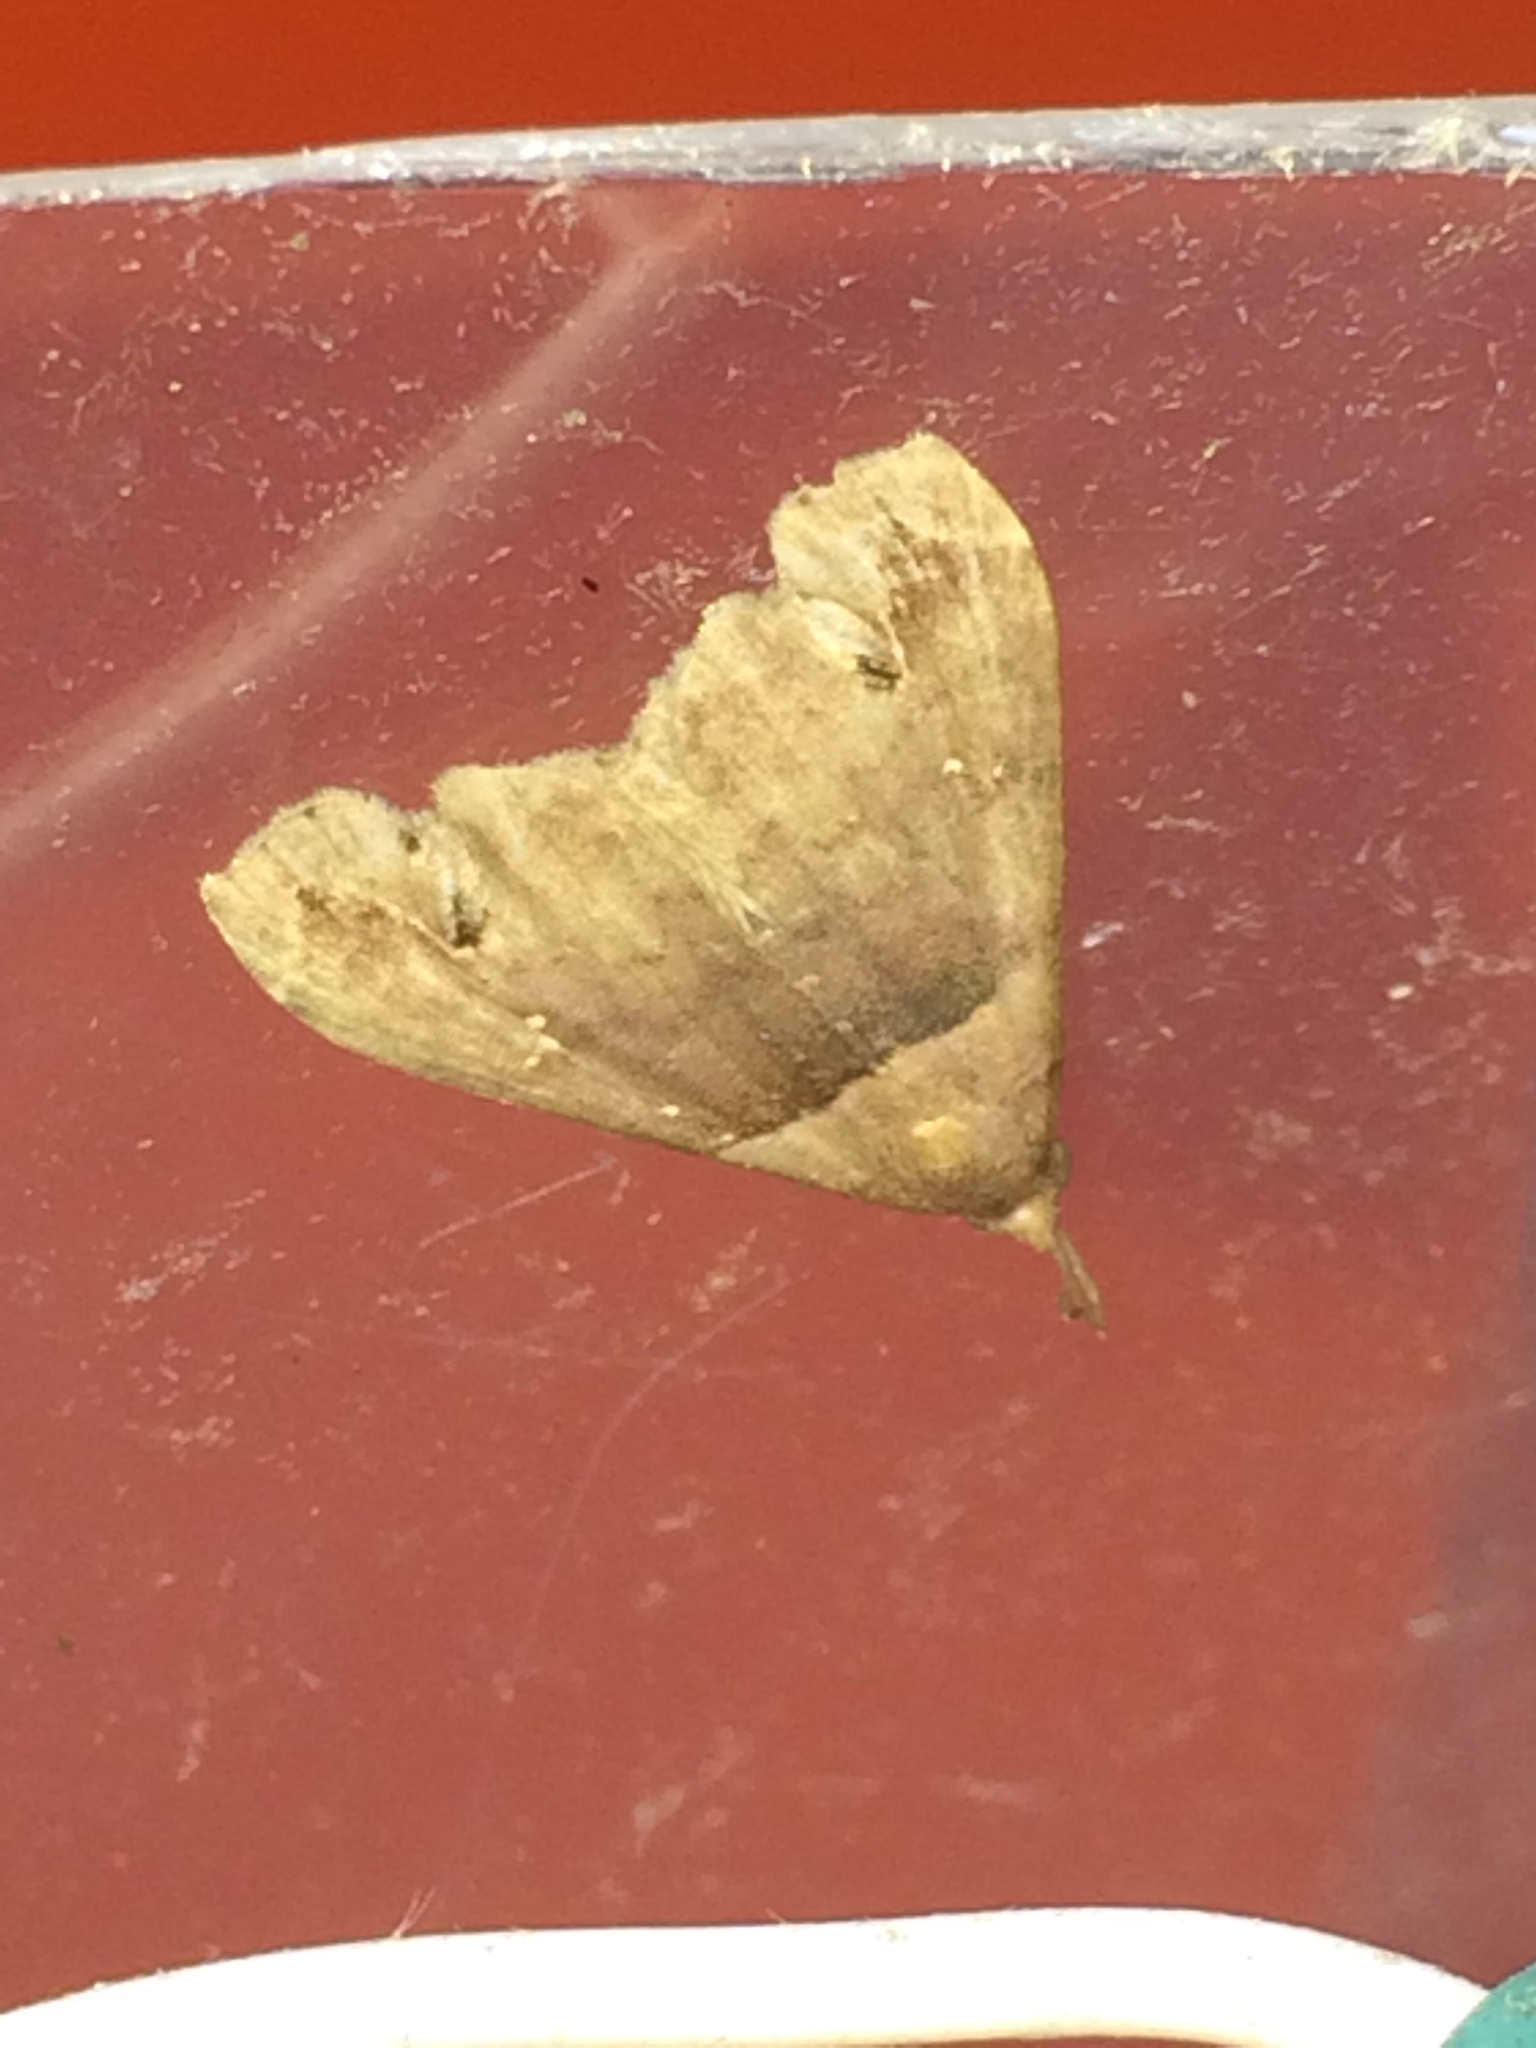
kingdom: Animalia
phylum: Arthropoda
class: Insecta
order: Lepidoptera
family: Erebidae
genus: Lascoria
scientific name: Lascoria ambigualis
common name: Ambiguous moth
